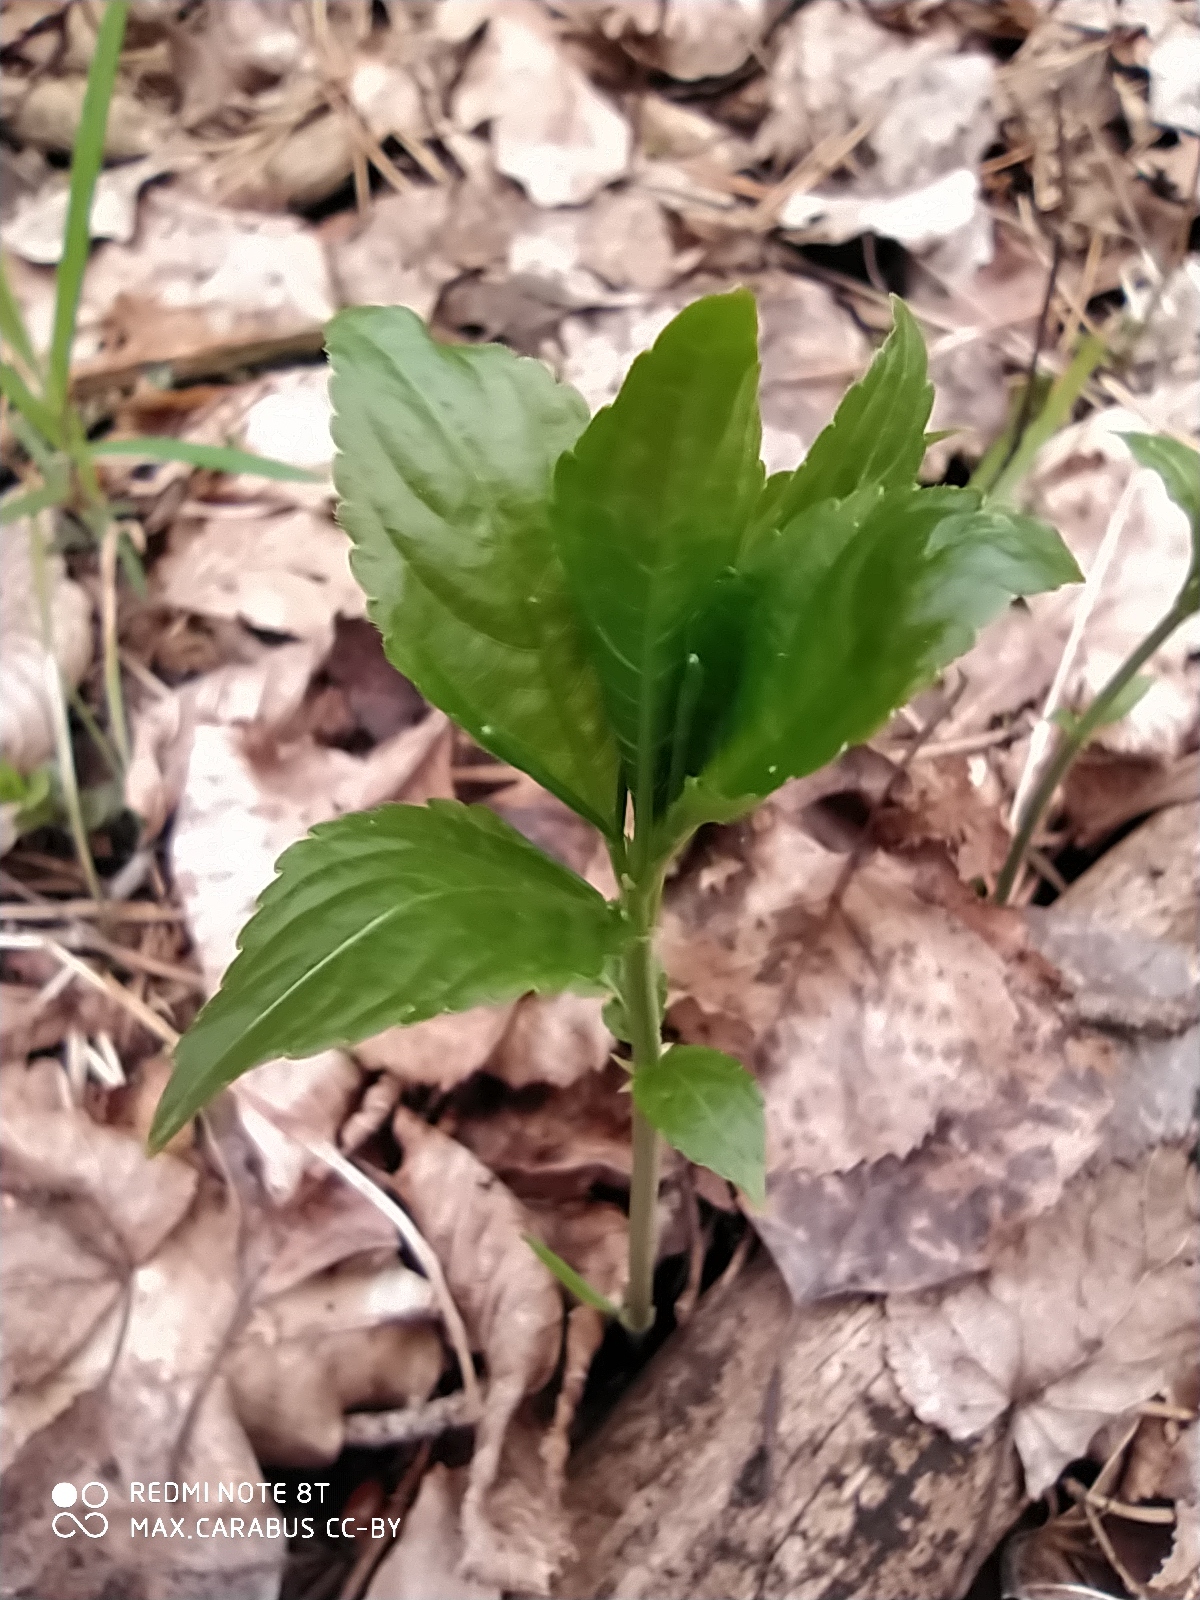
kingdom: Plantae
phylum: Tracheophyta
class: Magnoliopsida
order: Malpighiales
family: Euphorbiaceae
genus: Mercurialis
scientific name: Mercurialis perennis
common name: Dog mercury
